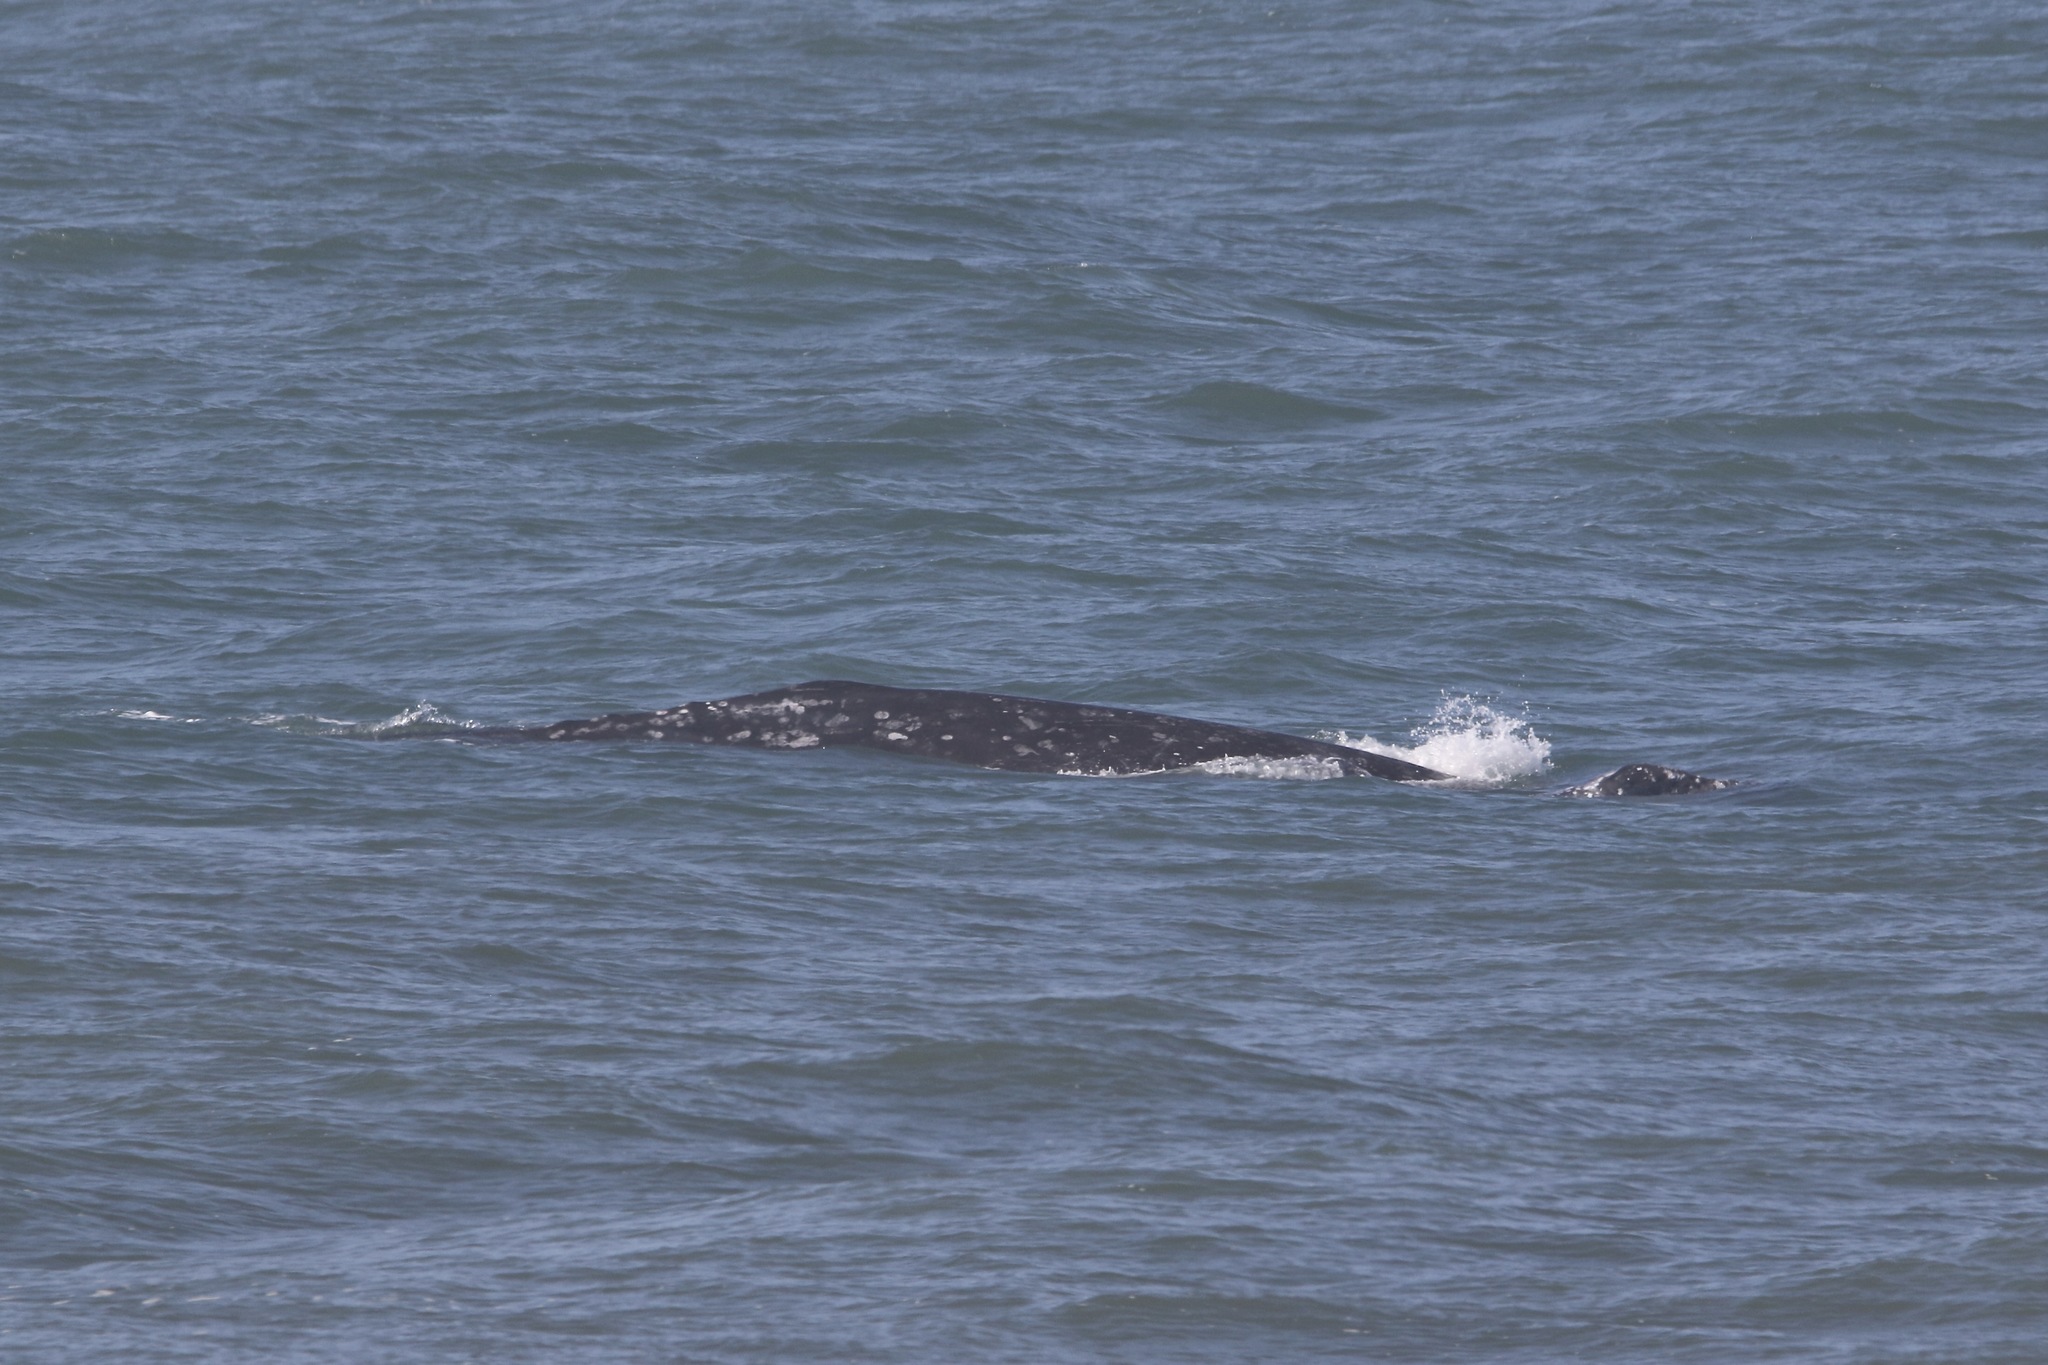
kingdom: Animalia
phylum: Chordata
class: Mammalia
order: Cetacea
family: Eschrichtiidae
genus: Eschrichtius
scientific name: Eschrichtius robustus
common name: Gray whale
